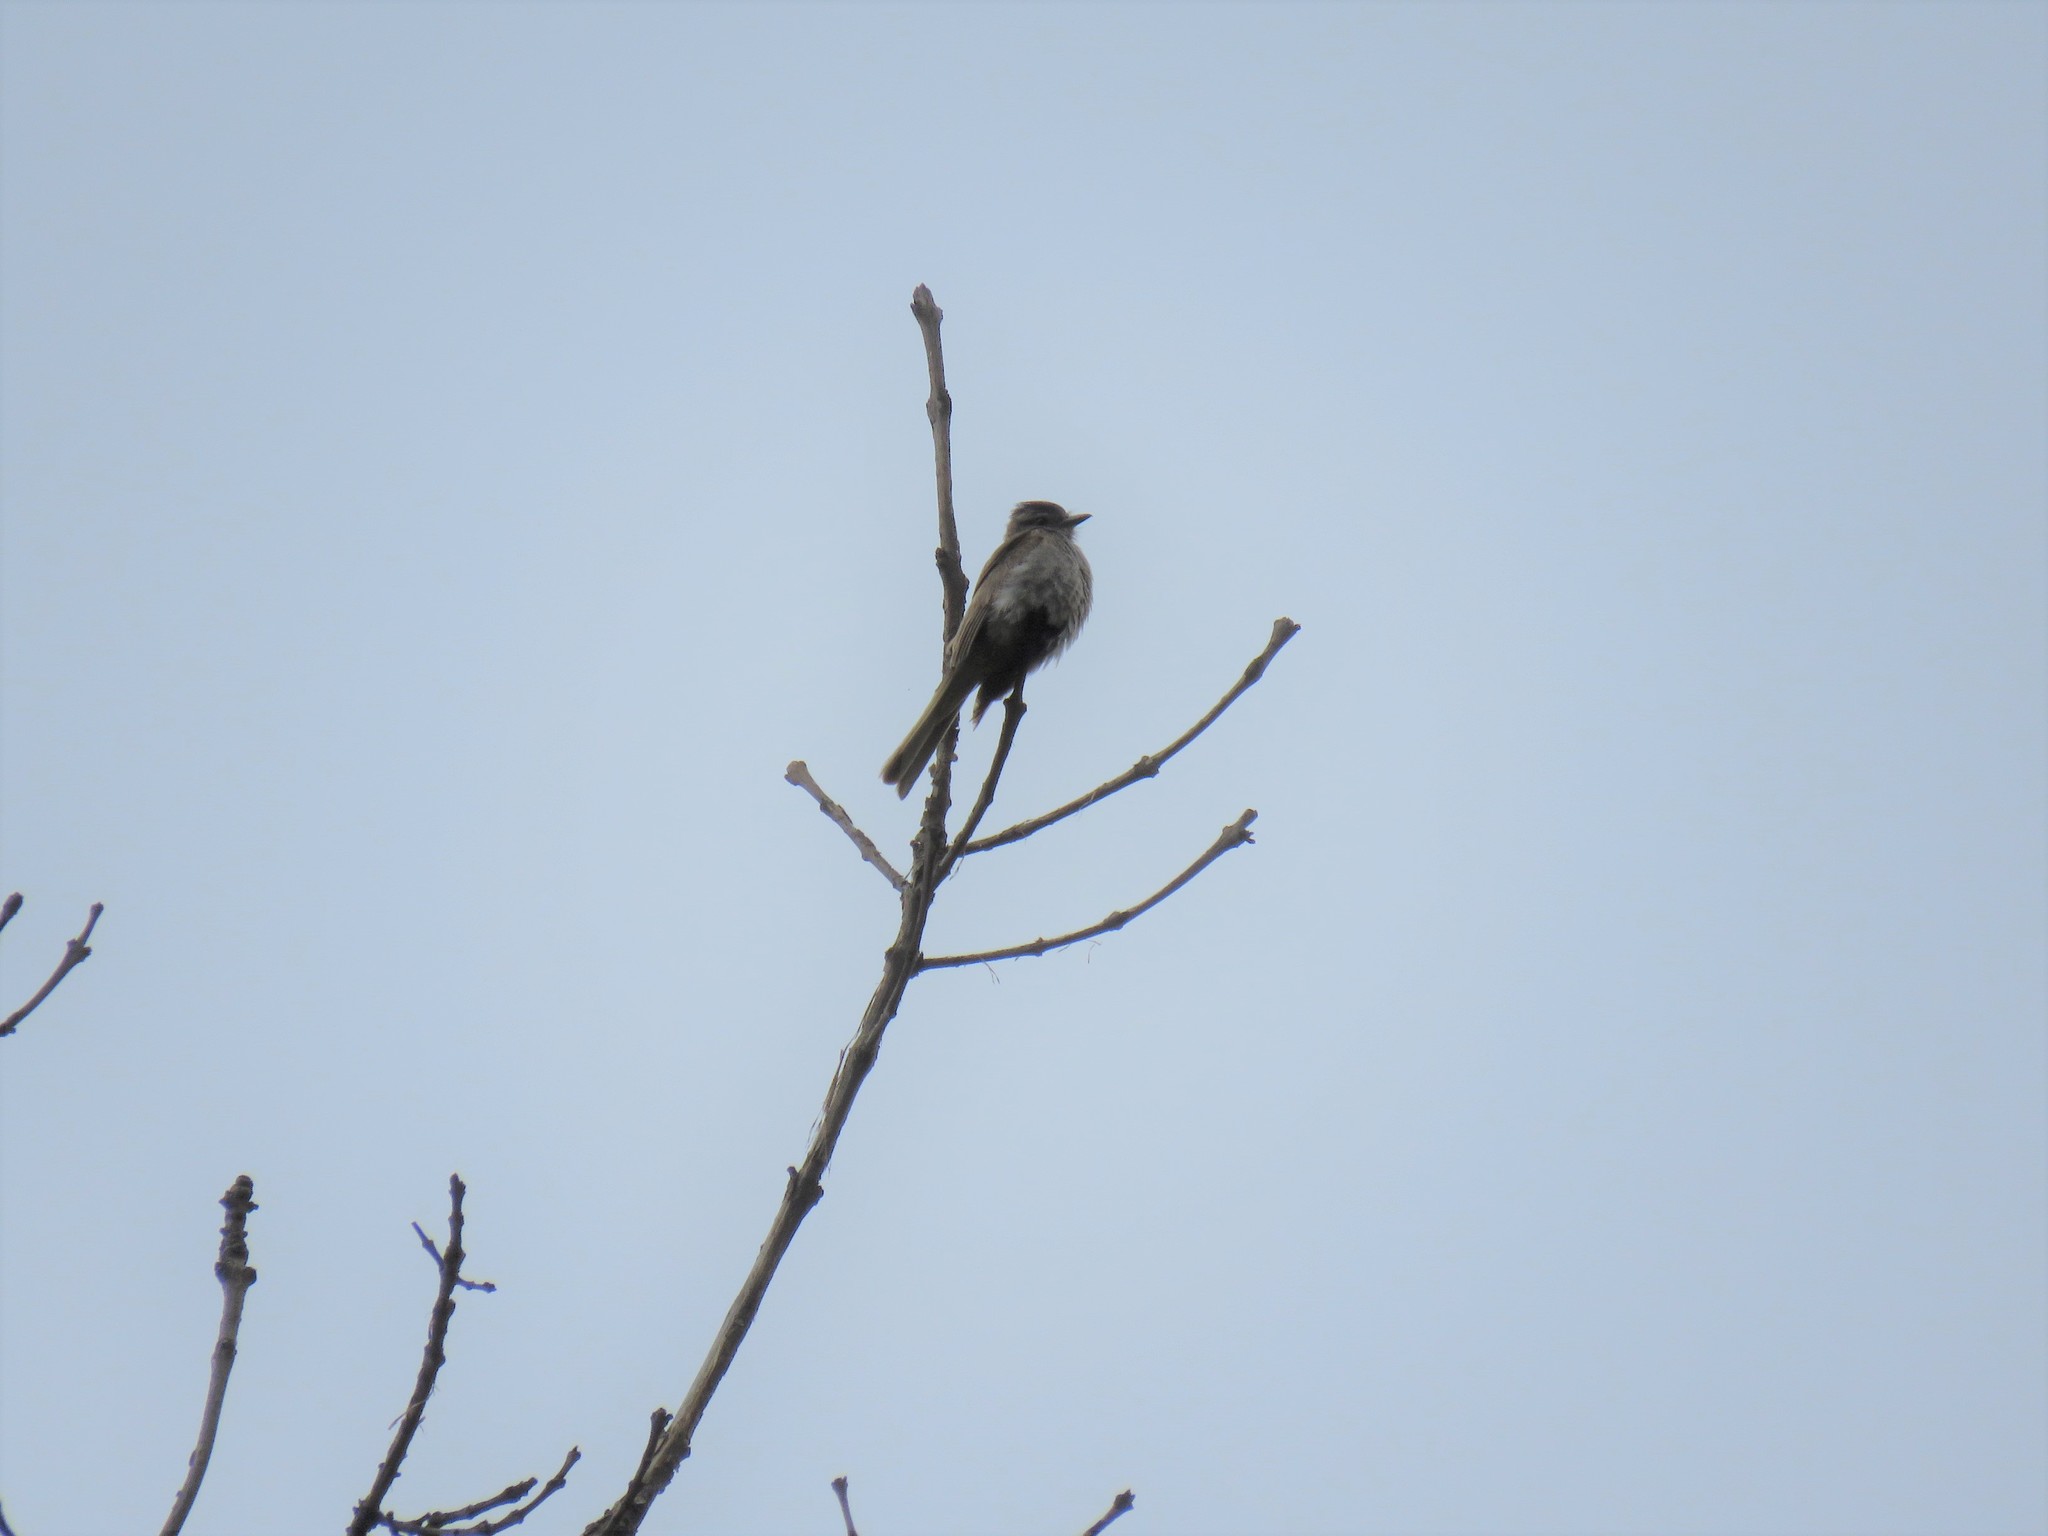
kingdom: Animalia
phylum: Chordata
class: Aves
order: Passeriformes
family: Tyrannidae
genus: Empidonomus
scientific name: Empidonomus aurantioatrocristatus
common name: Crowned slaty flycatcher
